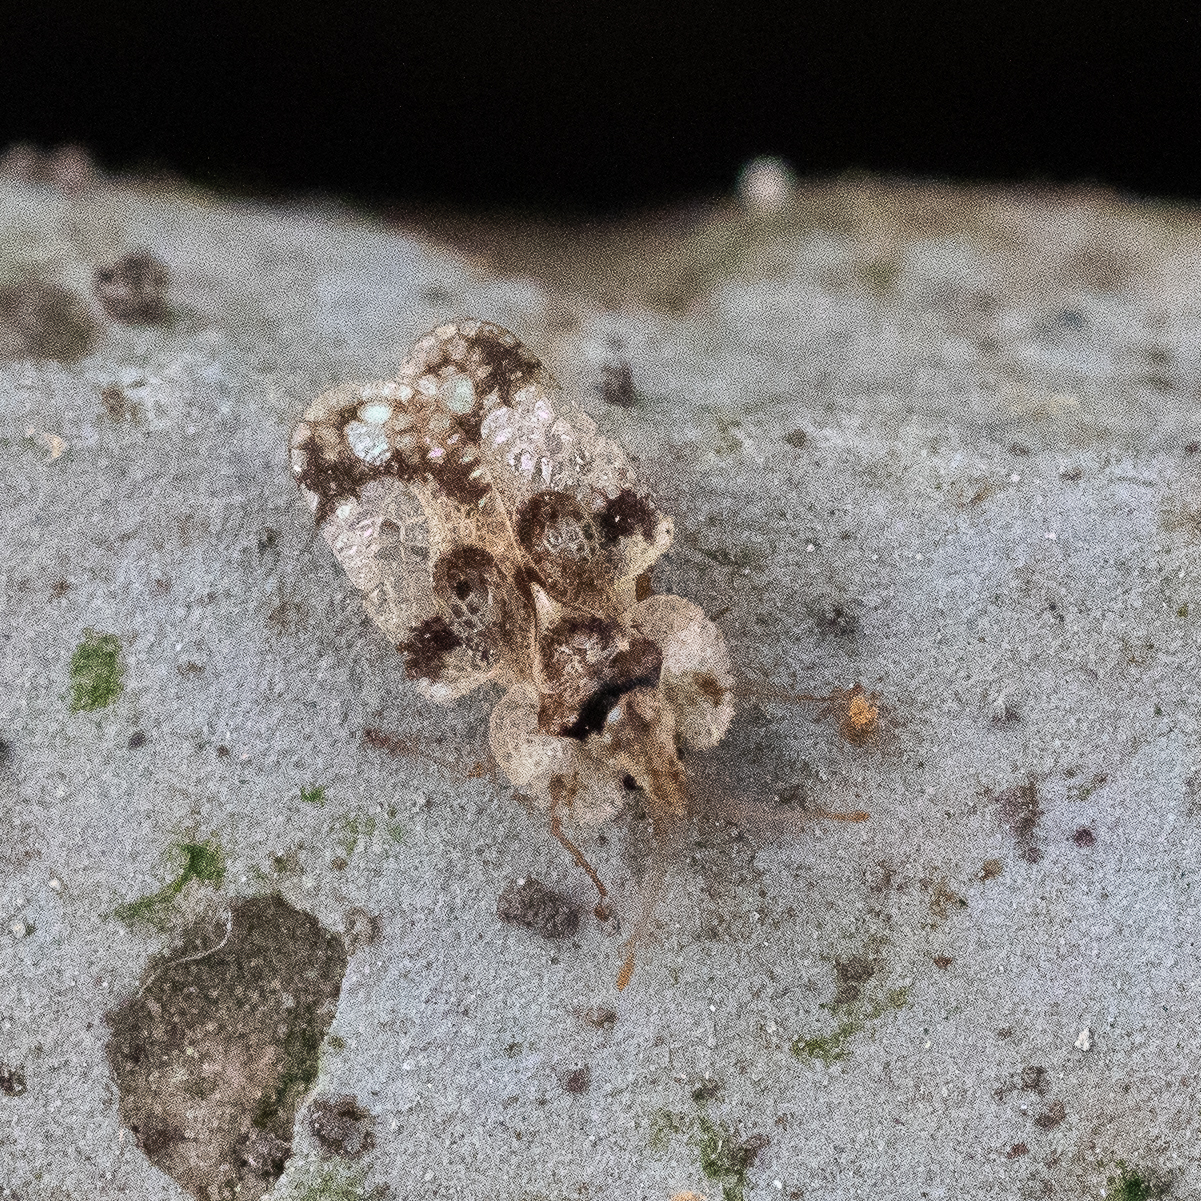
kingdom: Animalia
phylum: Arthropoda
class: Insecta
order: Hemiptera
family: Tingidae
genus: Corythucha
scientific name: Corythucha arcuata
